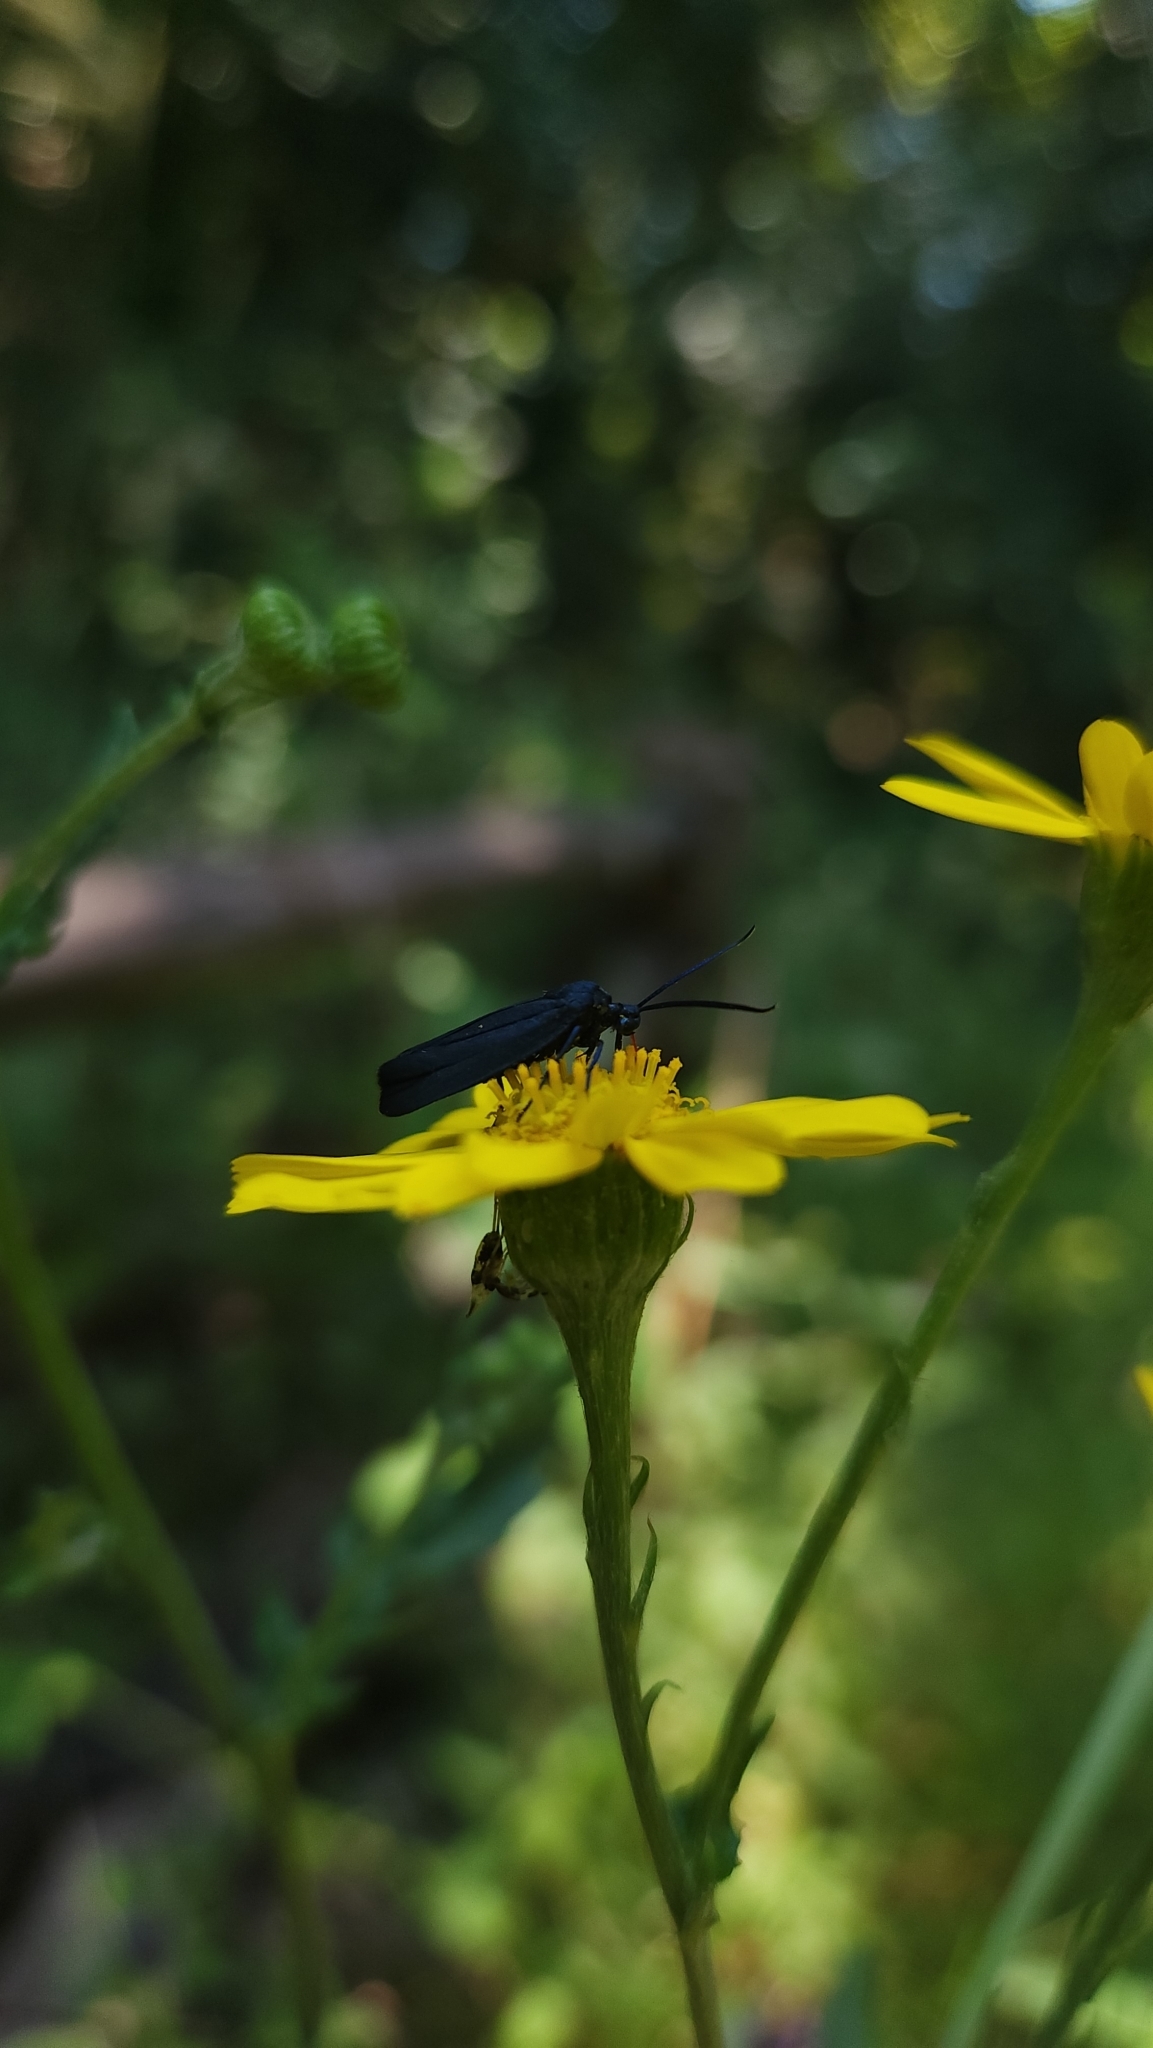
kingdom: Animalia
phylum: Arthropoda
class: Insecta
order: Lepidoptera
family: Zygaenidae
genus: Malamblia
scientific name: Malamblia
